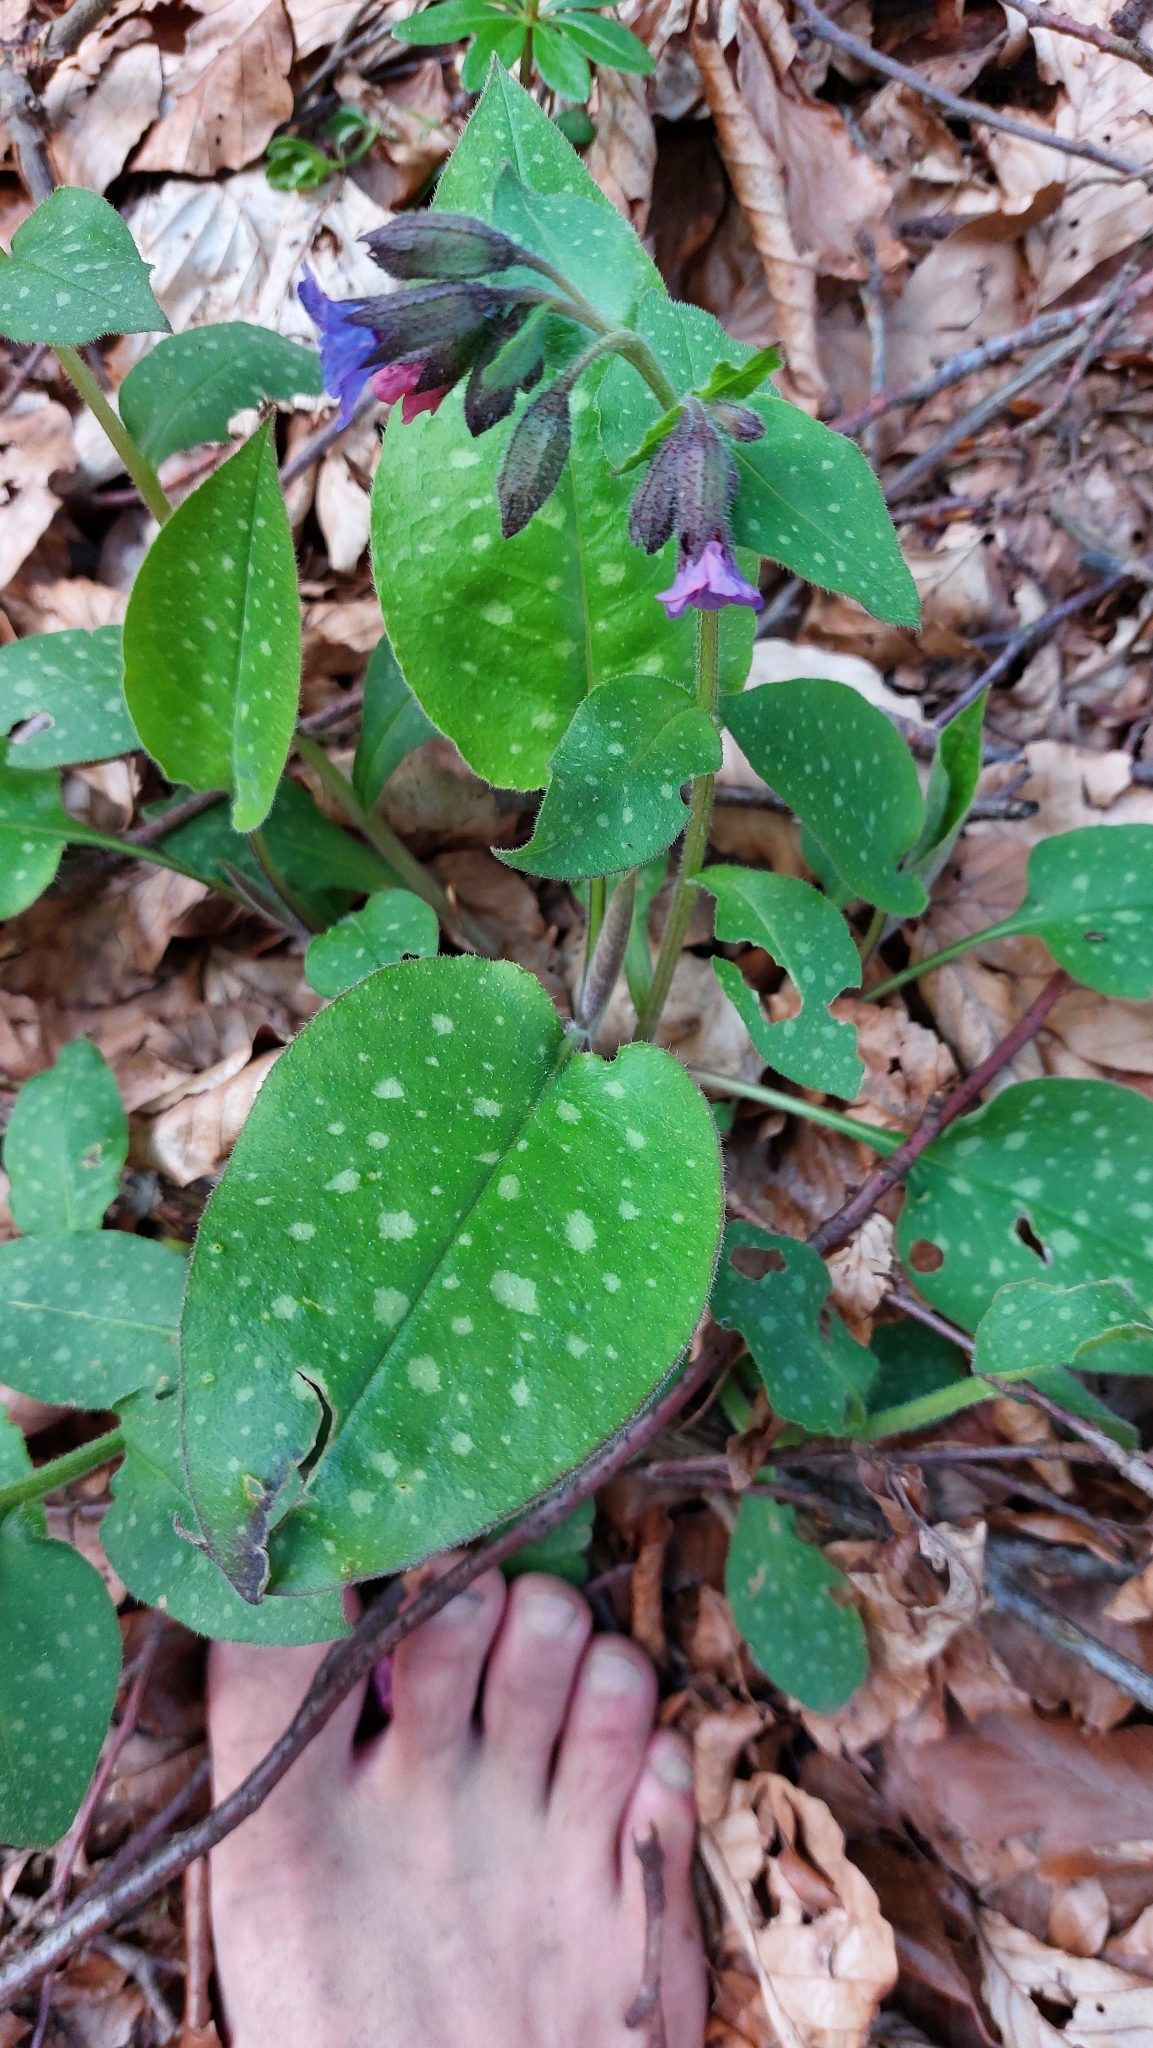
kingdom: Plantae
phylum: Tracheophyta
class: Magnoliopsida
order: Boraginales
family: Boraginaceae
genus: Pulmonaria
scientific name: Pulmonaria officinalis
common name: Lungwort
